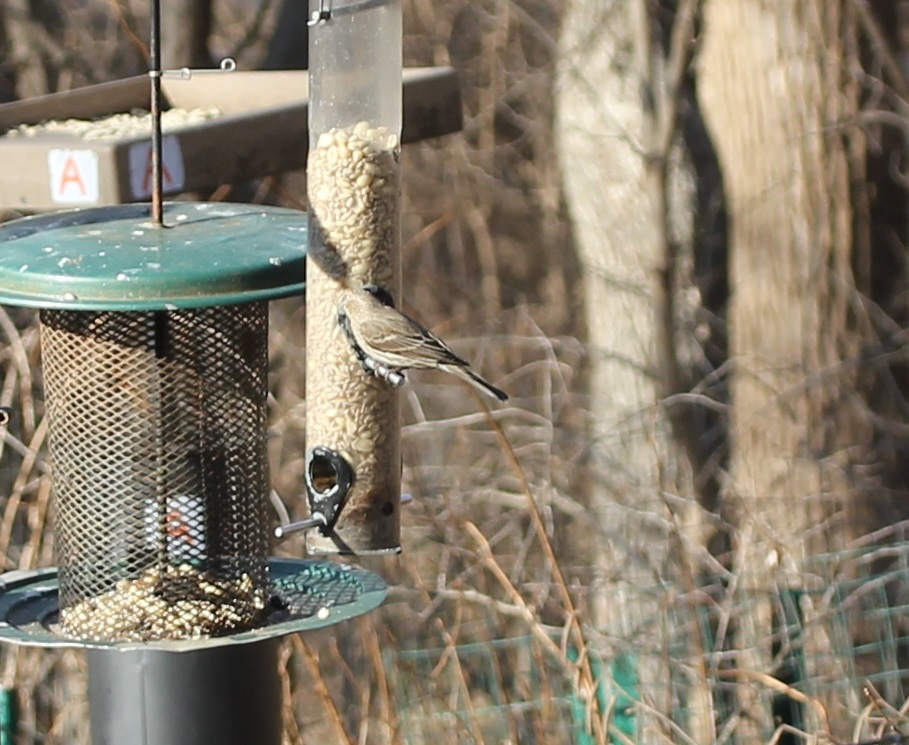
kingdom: Animalia
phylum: Chordata
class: Aves
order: Passeriformes
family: Fringillidae
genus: Haemorhous
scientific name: Haemorhous mexicanus
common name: House finch
